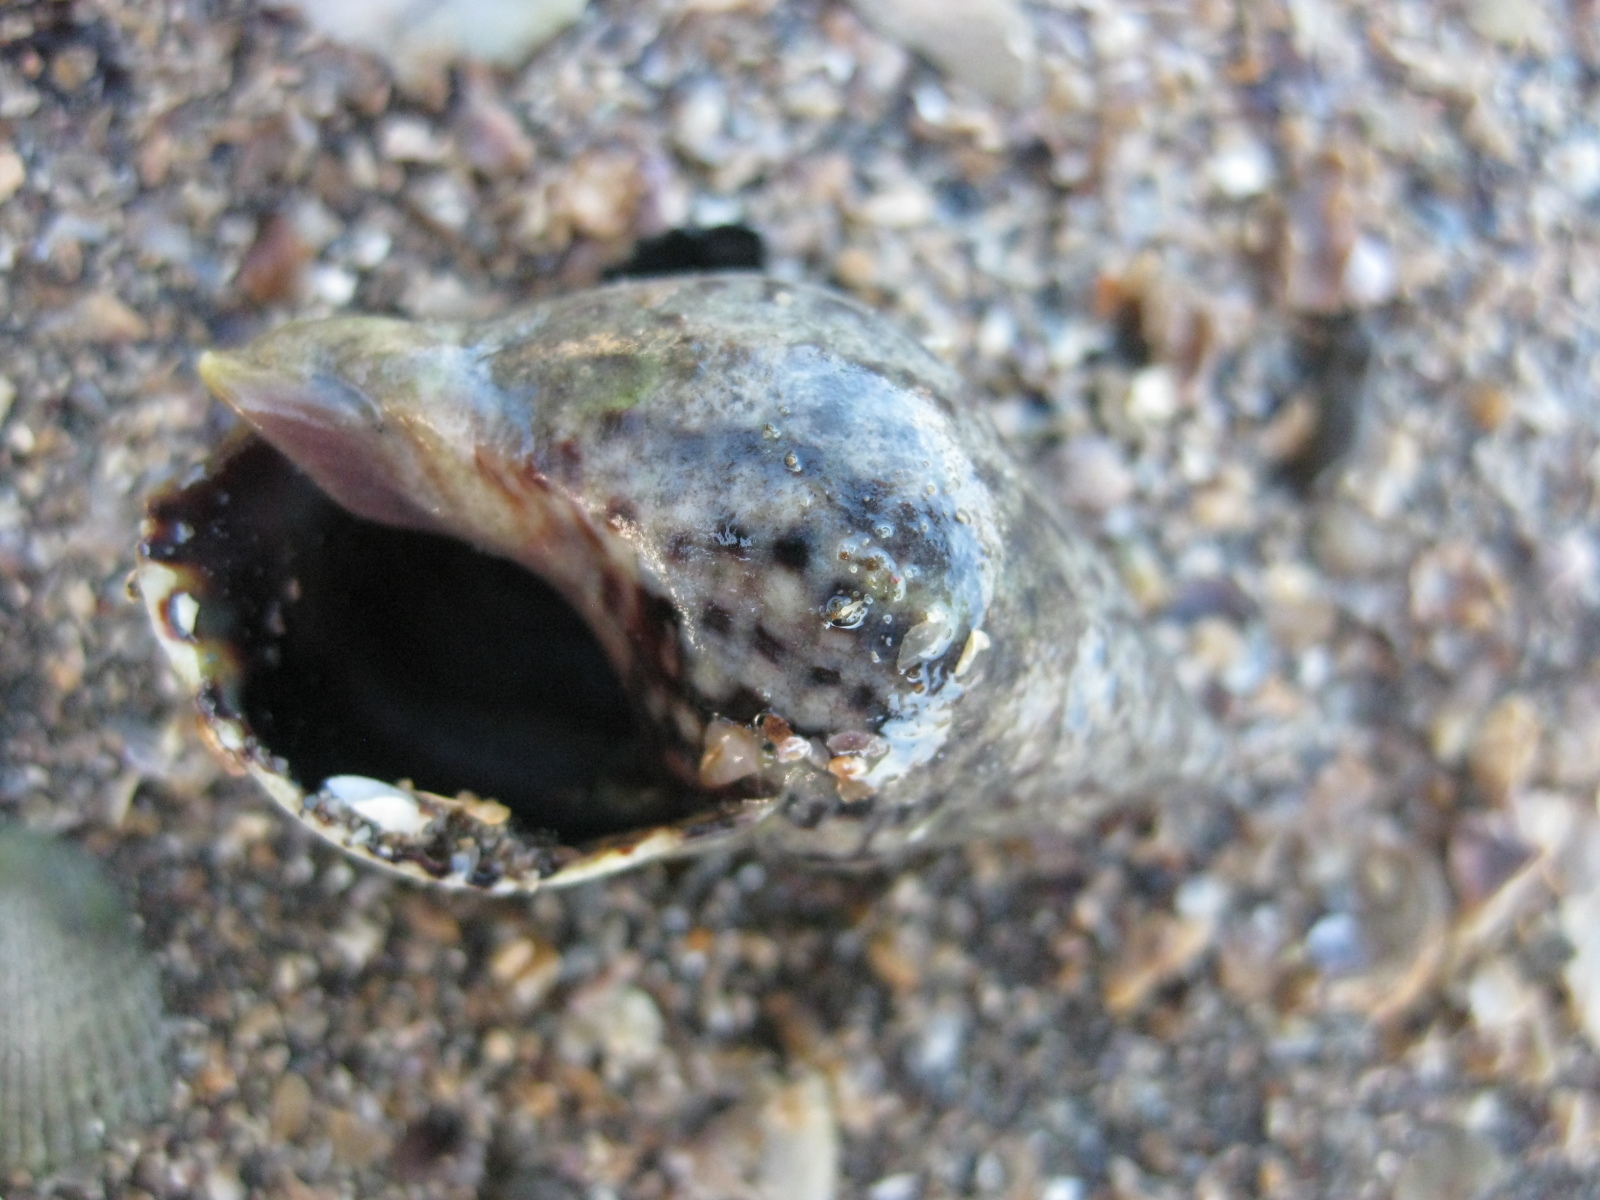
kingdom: Animalia
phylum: Mollusca
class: Gastropoda
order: Neogastropoda
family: Cominellidae
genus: Cominella
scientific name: Cominella maculosa
